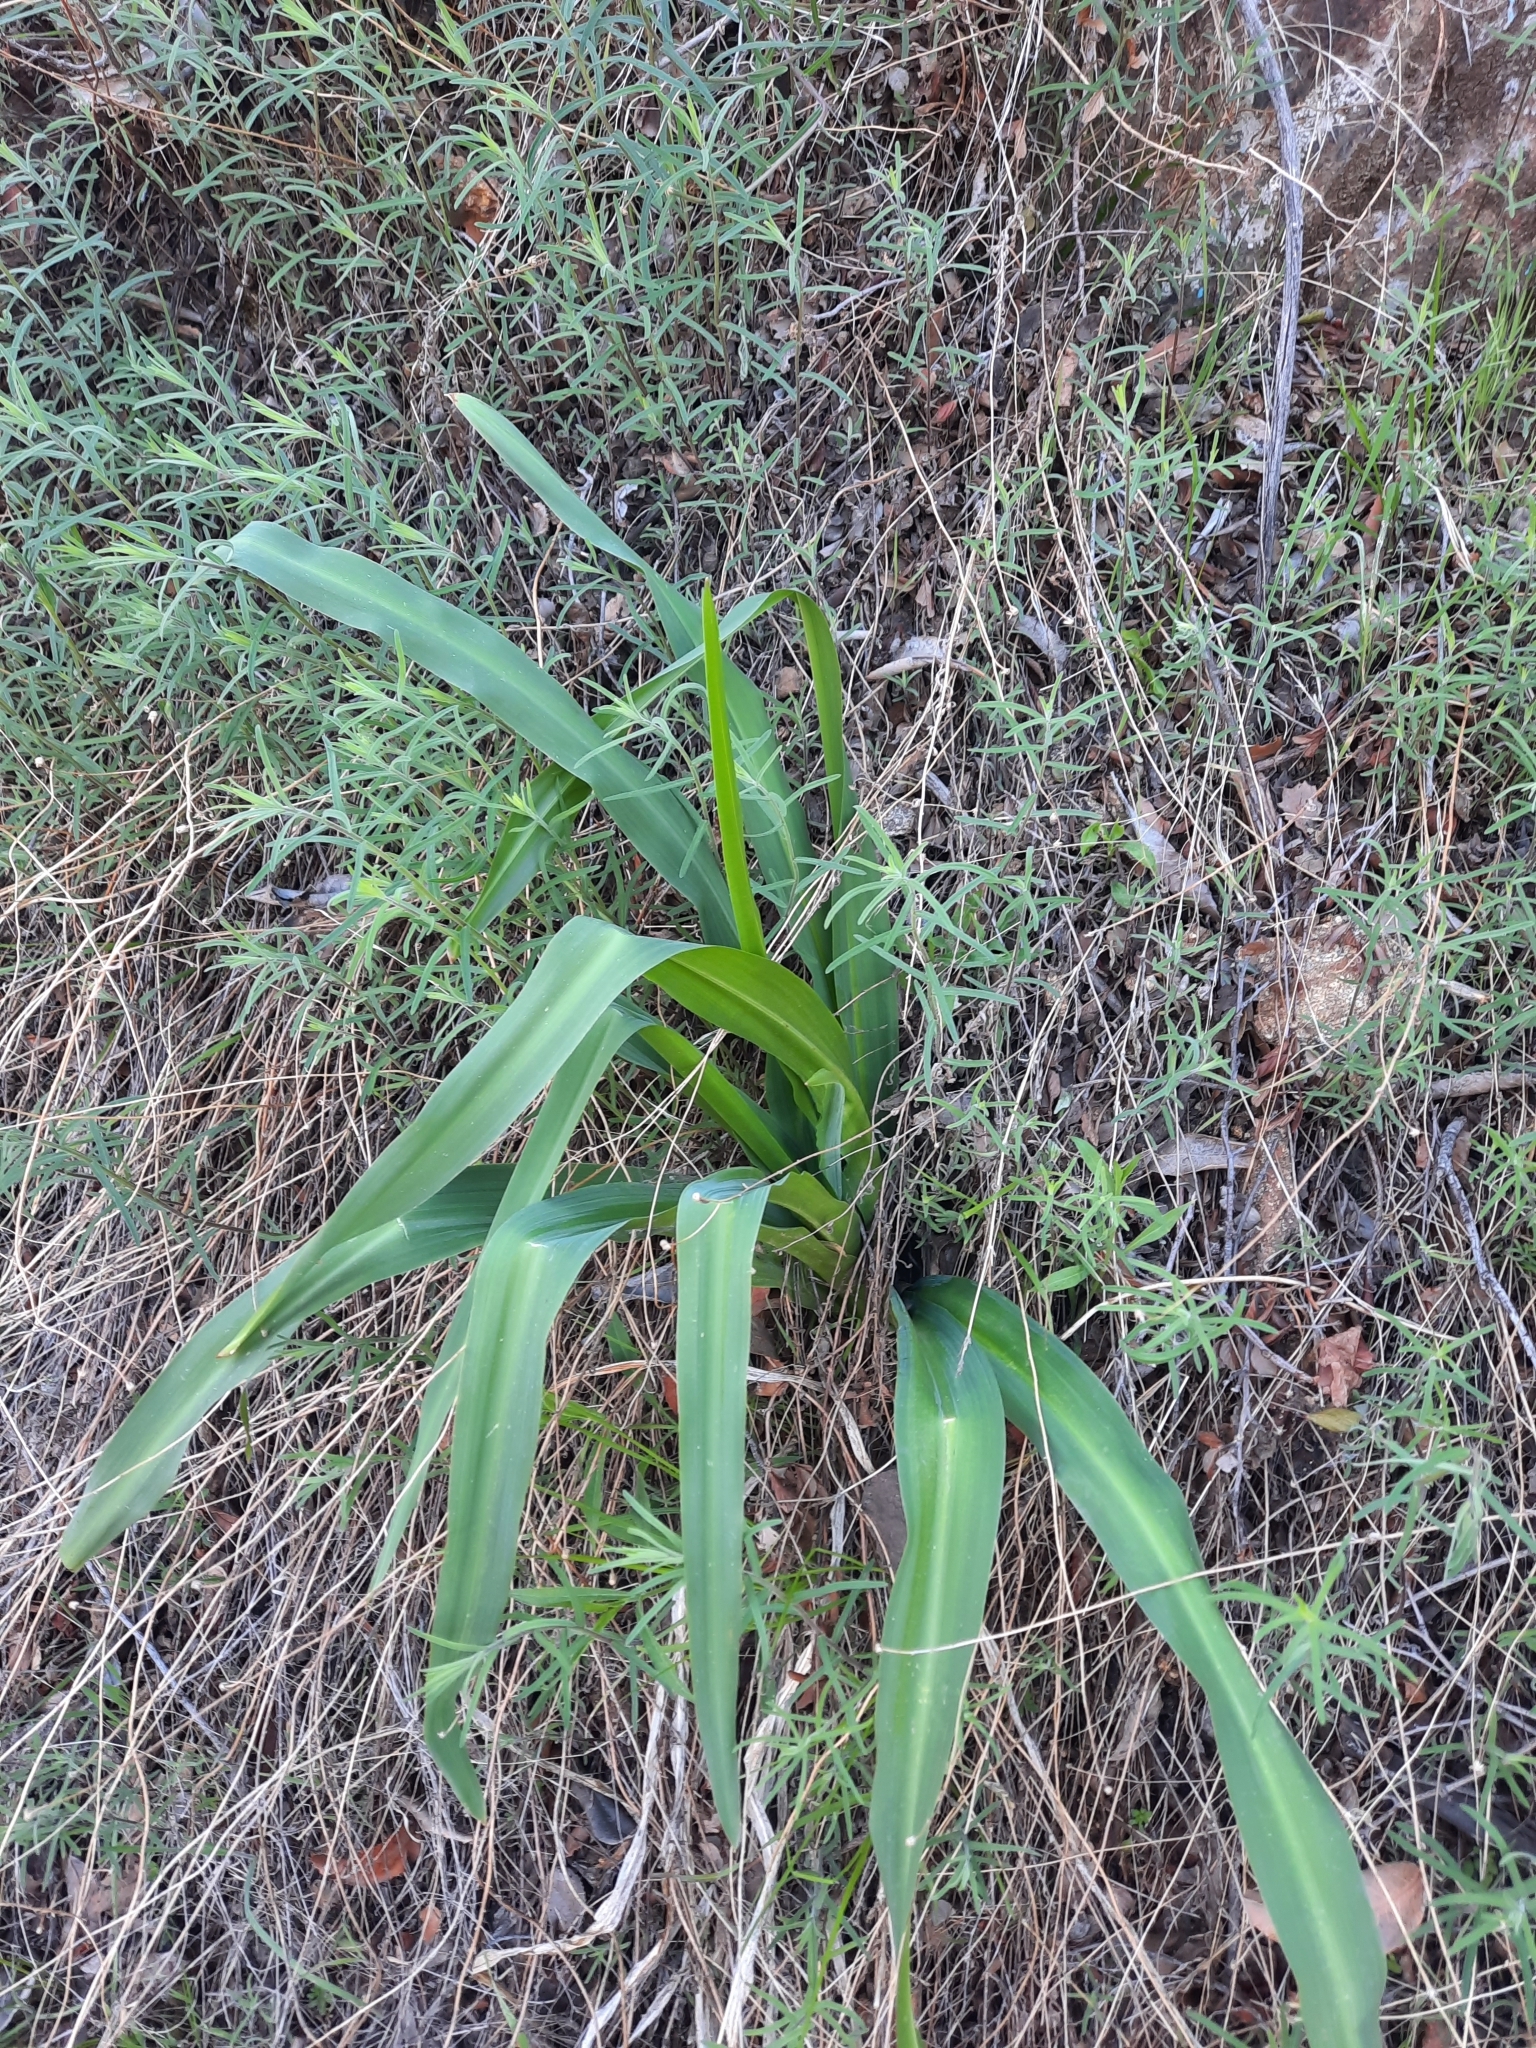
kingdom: Plantae
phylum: Tracheophyta
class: Liliopsida
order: Asparagales
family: Asparagaceae
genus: Chlorogalum
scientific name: Chlorogalum pomeridianum
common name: Amole
